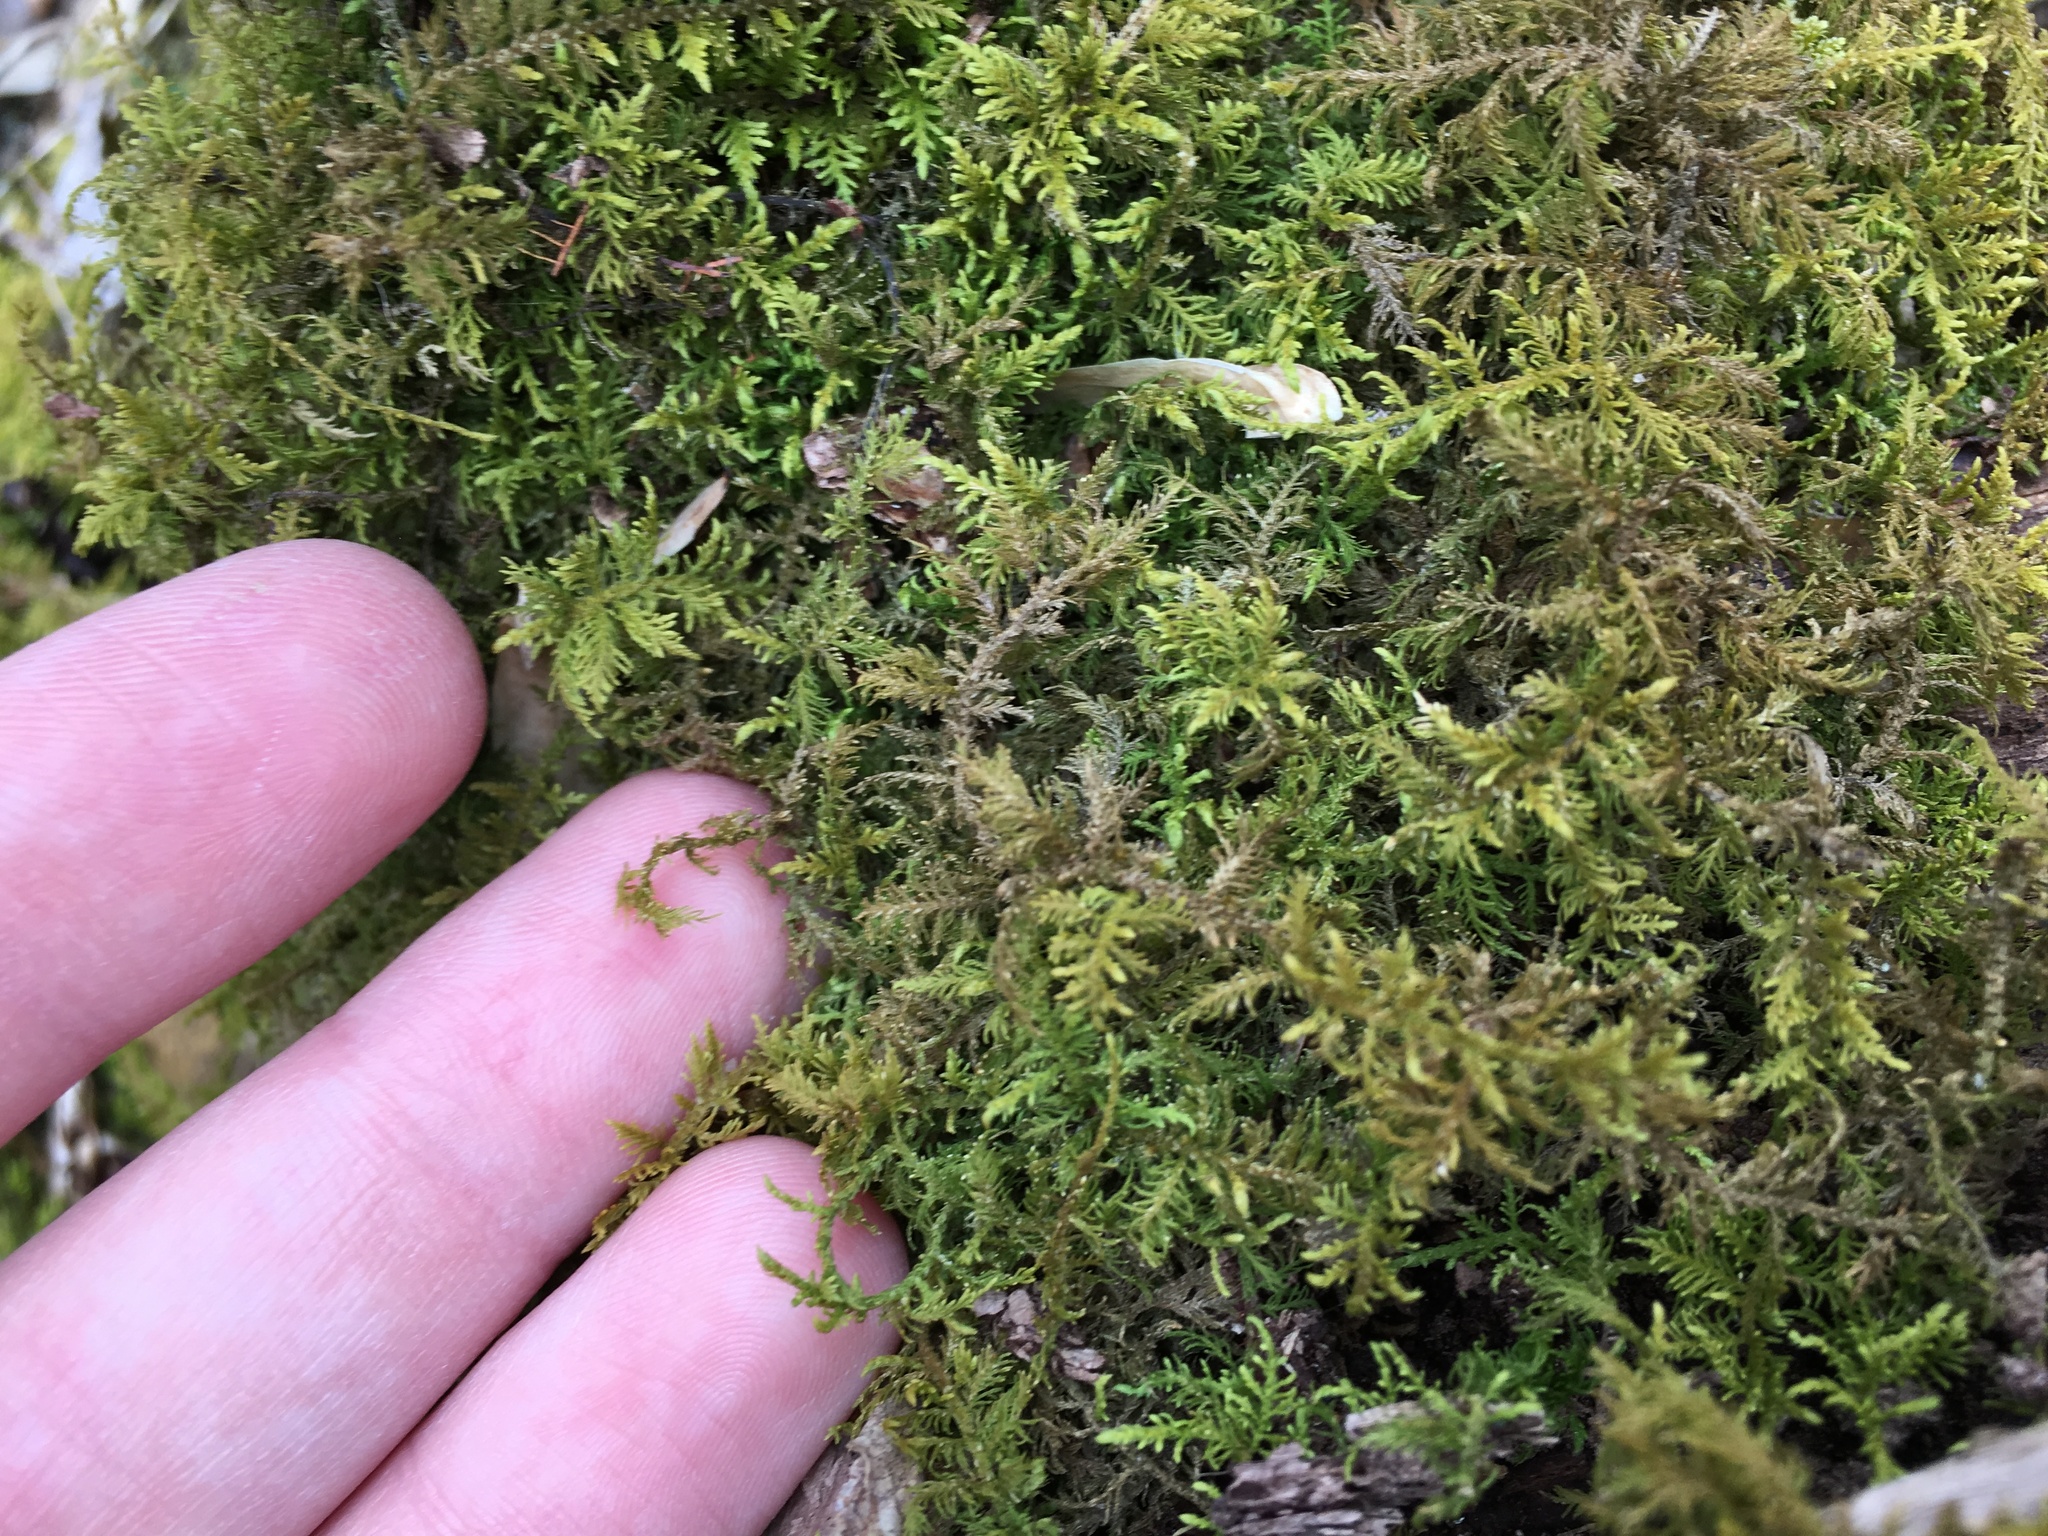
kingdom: Plantae
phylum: Bryophyta
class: Bryopsida
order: Hypnales
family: Thuidiaceae
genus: Thuidium
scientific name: Thuidium delicatulum
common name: Delicate fern moss
